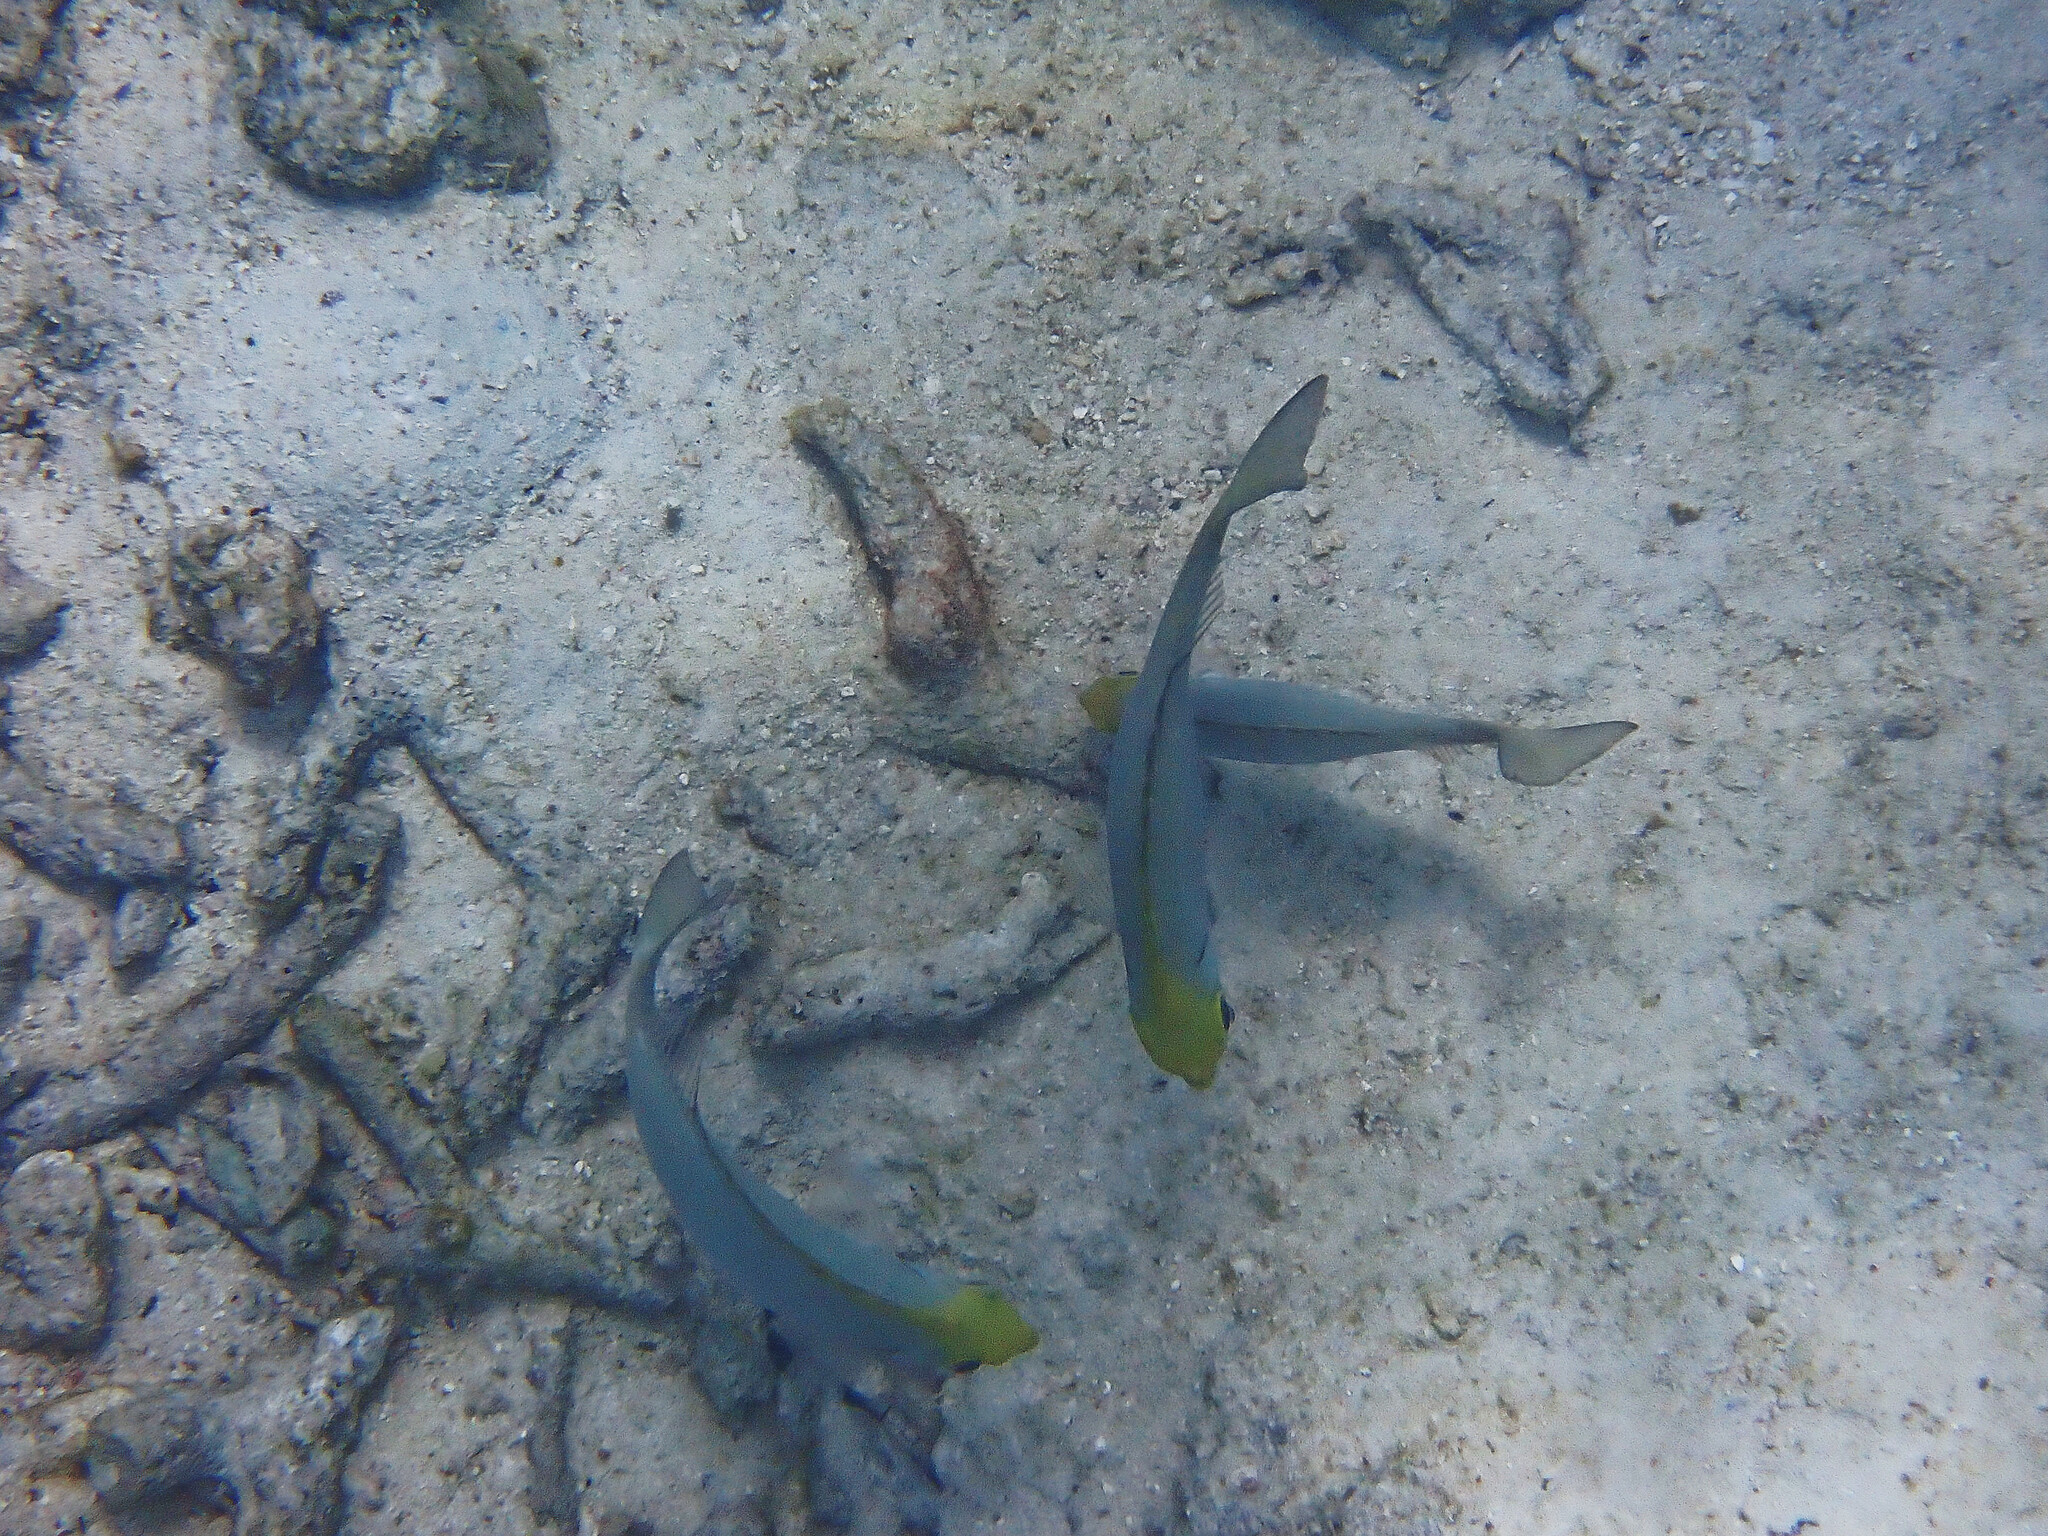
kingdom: Animalia
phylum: Chordata
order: Perciformes
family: Siganidae
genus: Siganus
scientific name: Siganus fuscescens
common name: Dusky rabbitfish
